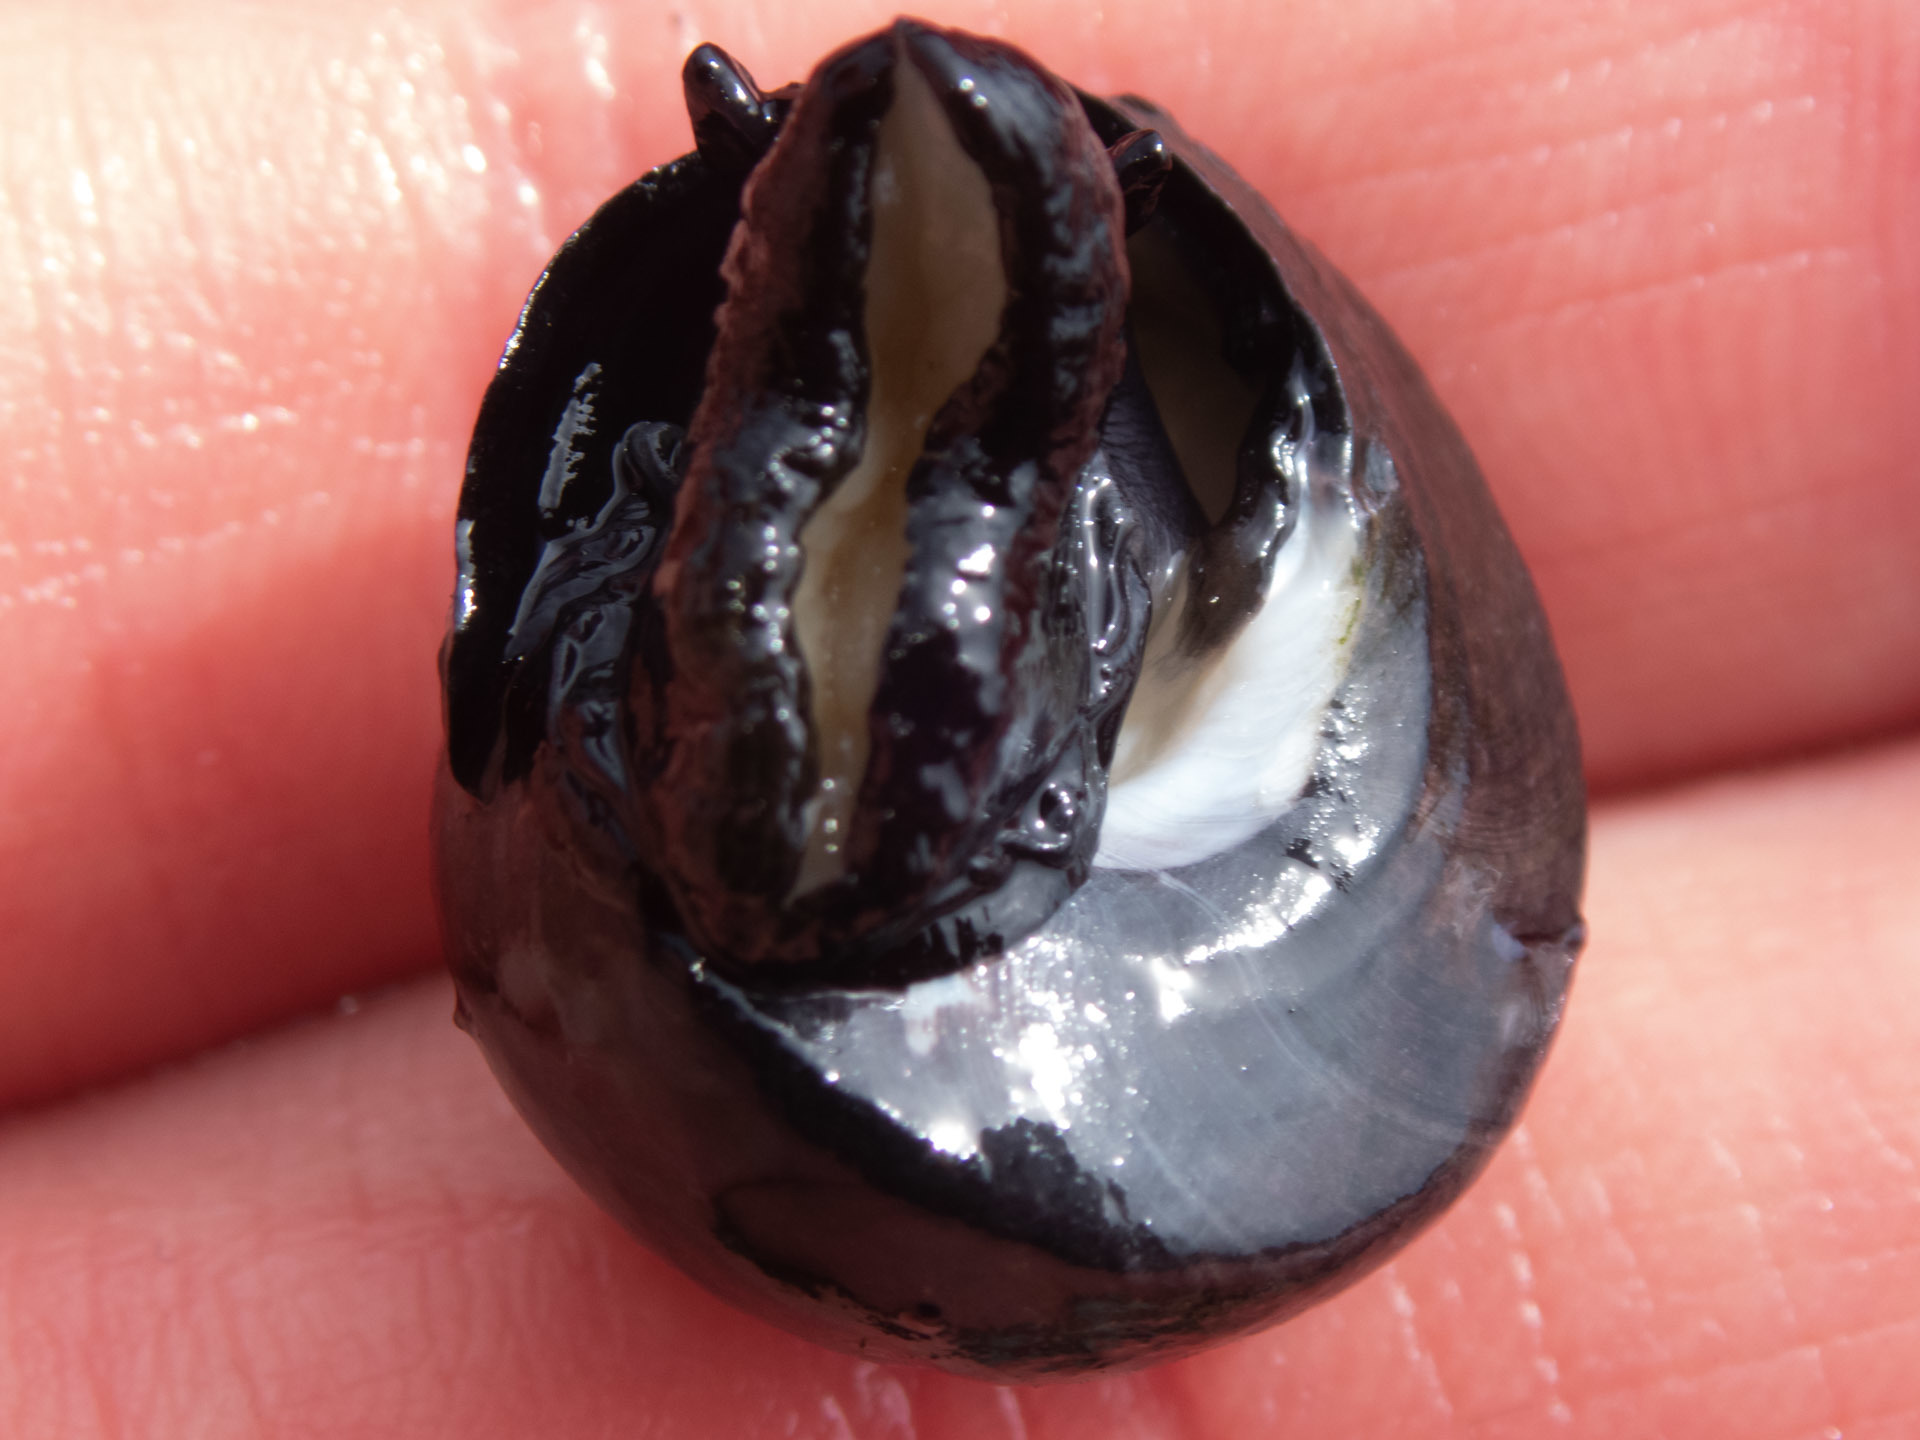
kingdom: Animalia
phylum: Mollusca
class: Gastropoda
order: Trochida
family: Tegulidae
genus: Tegula
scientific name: Tegula funebralis
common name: Black tegula
